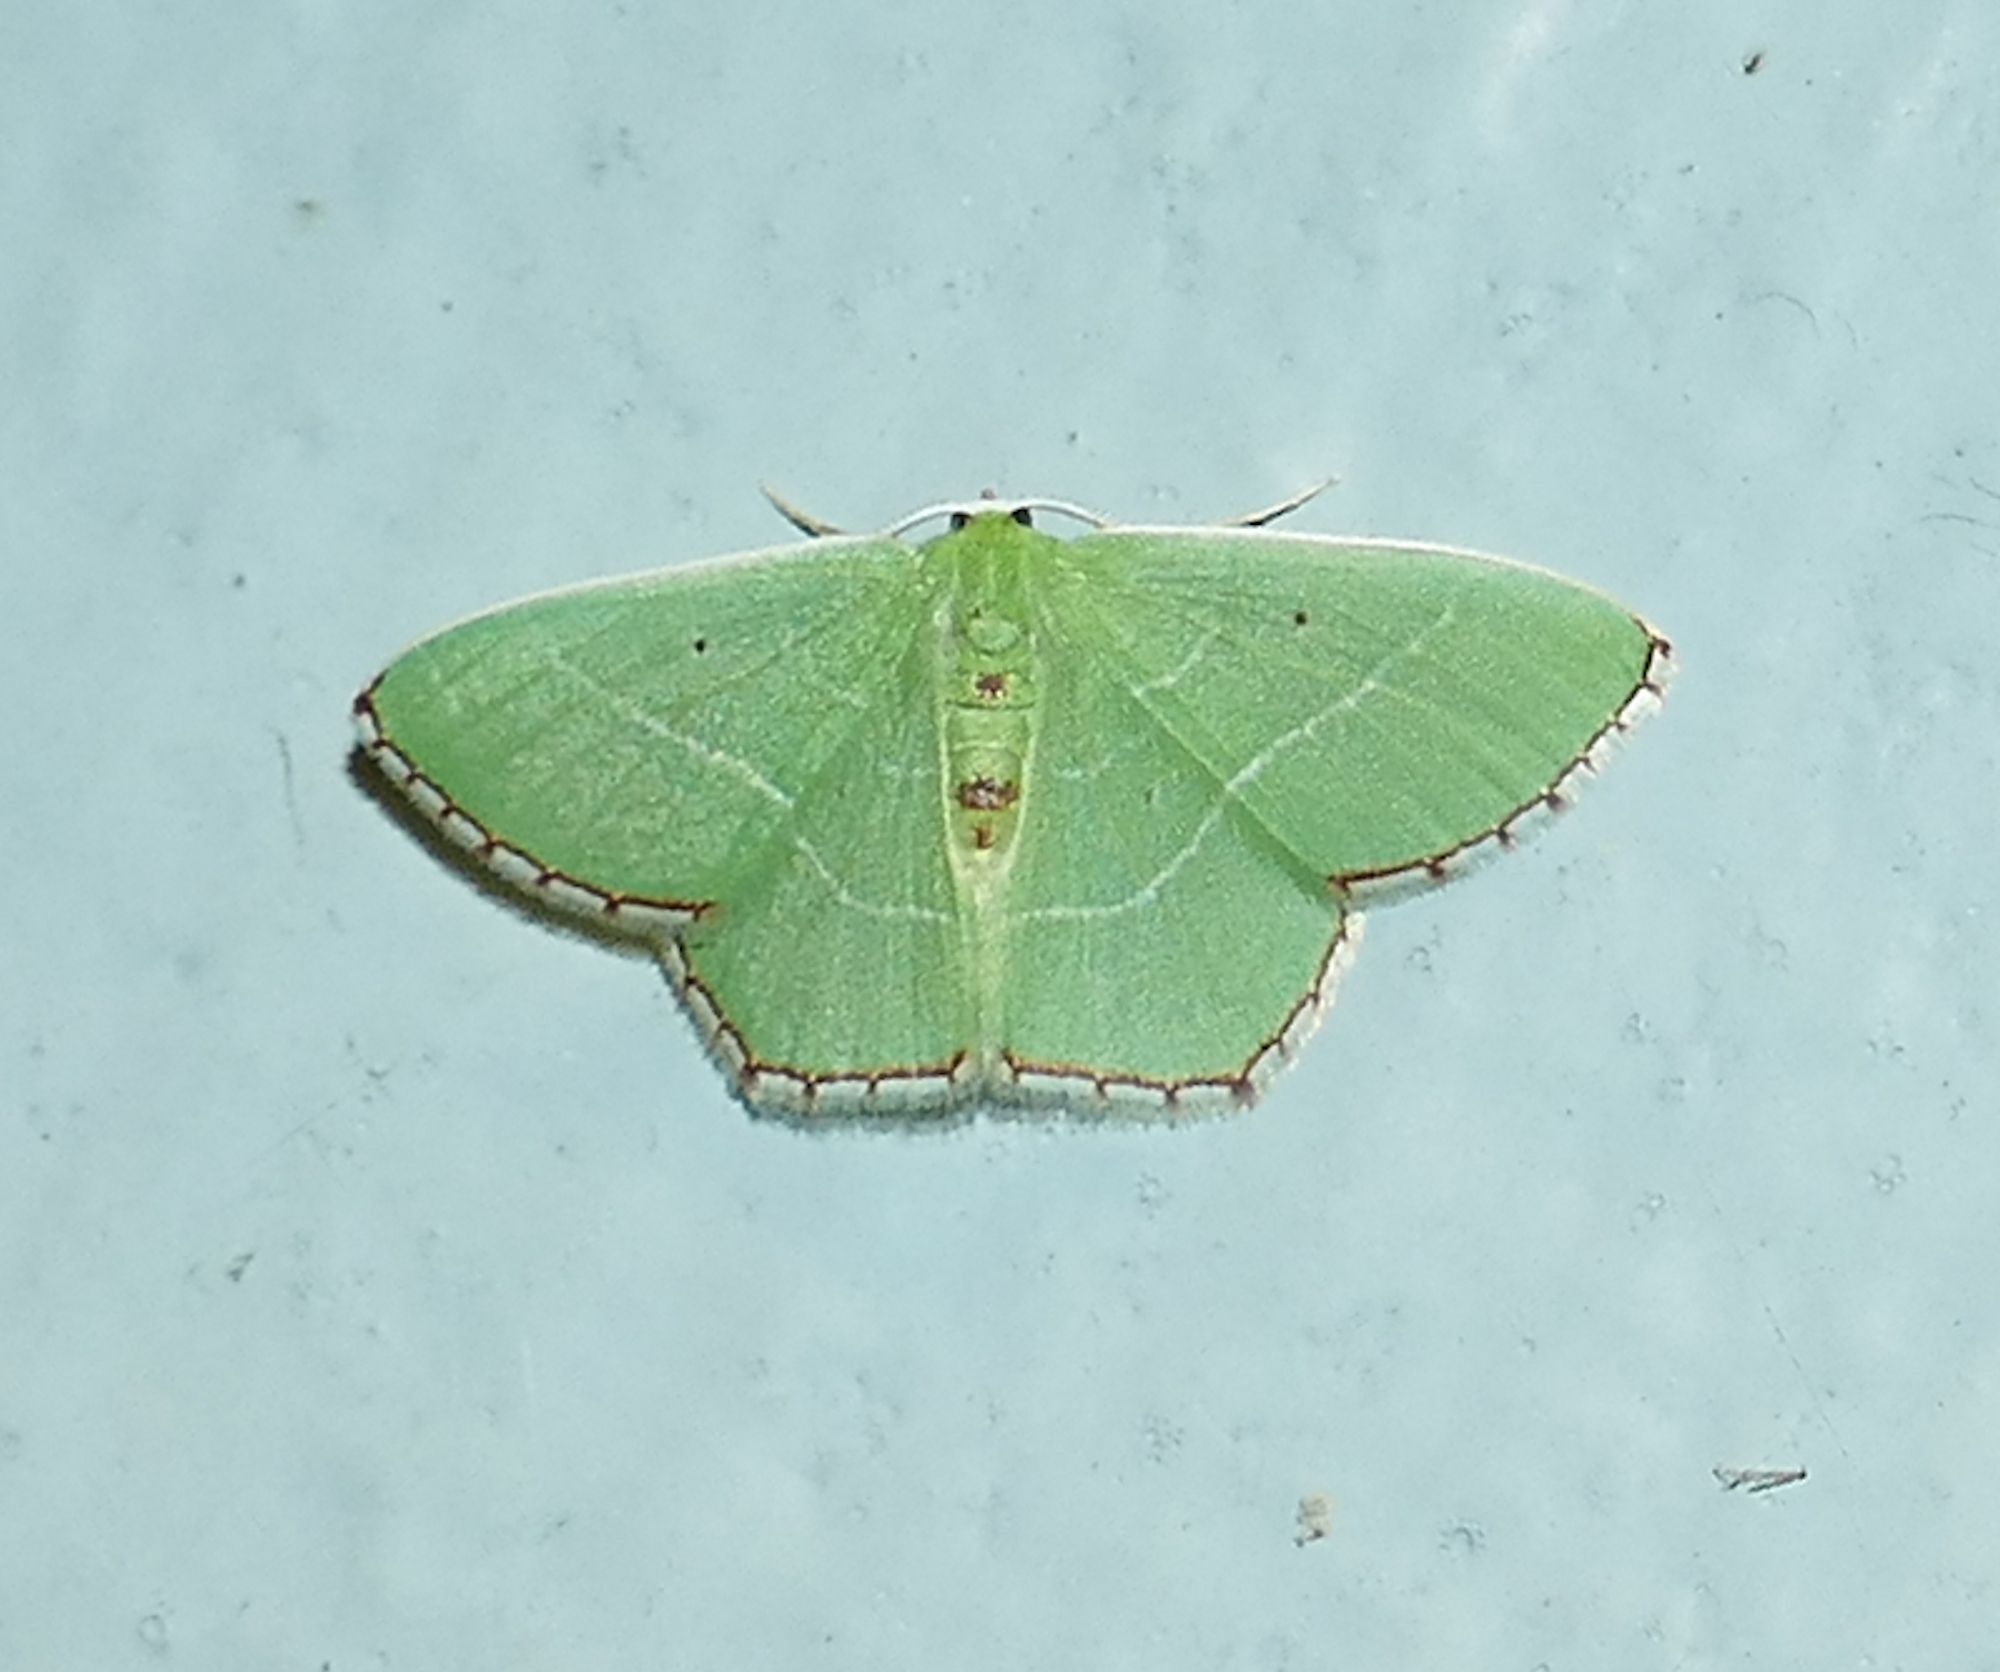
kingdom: Animalia
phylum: Arthropoda
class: Insecta
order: Lepidoptera
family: Geometridae
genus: Nemoria
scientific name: Nemoria saturiba
